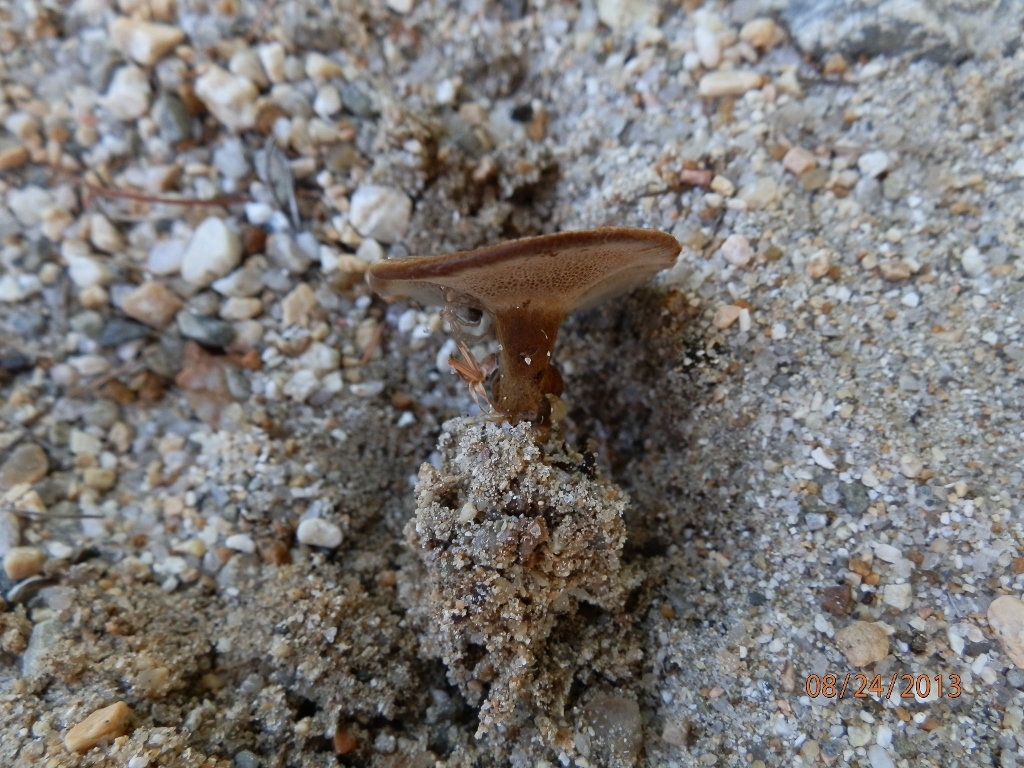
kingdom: Fungi
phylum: Basidiomycota
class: Agaricomycetes
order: Hymenochaetales
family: Hymenochaetaceae
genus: Coltricia
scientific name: Coltricia cinnamomea
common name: Shiny cinnamon polypore
